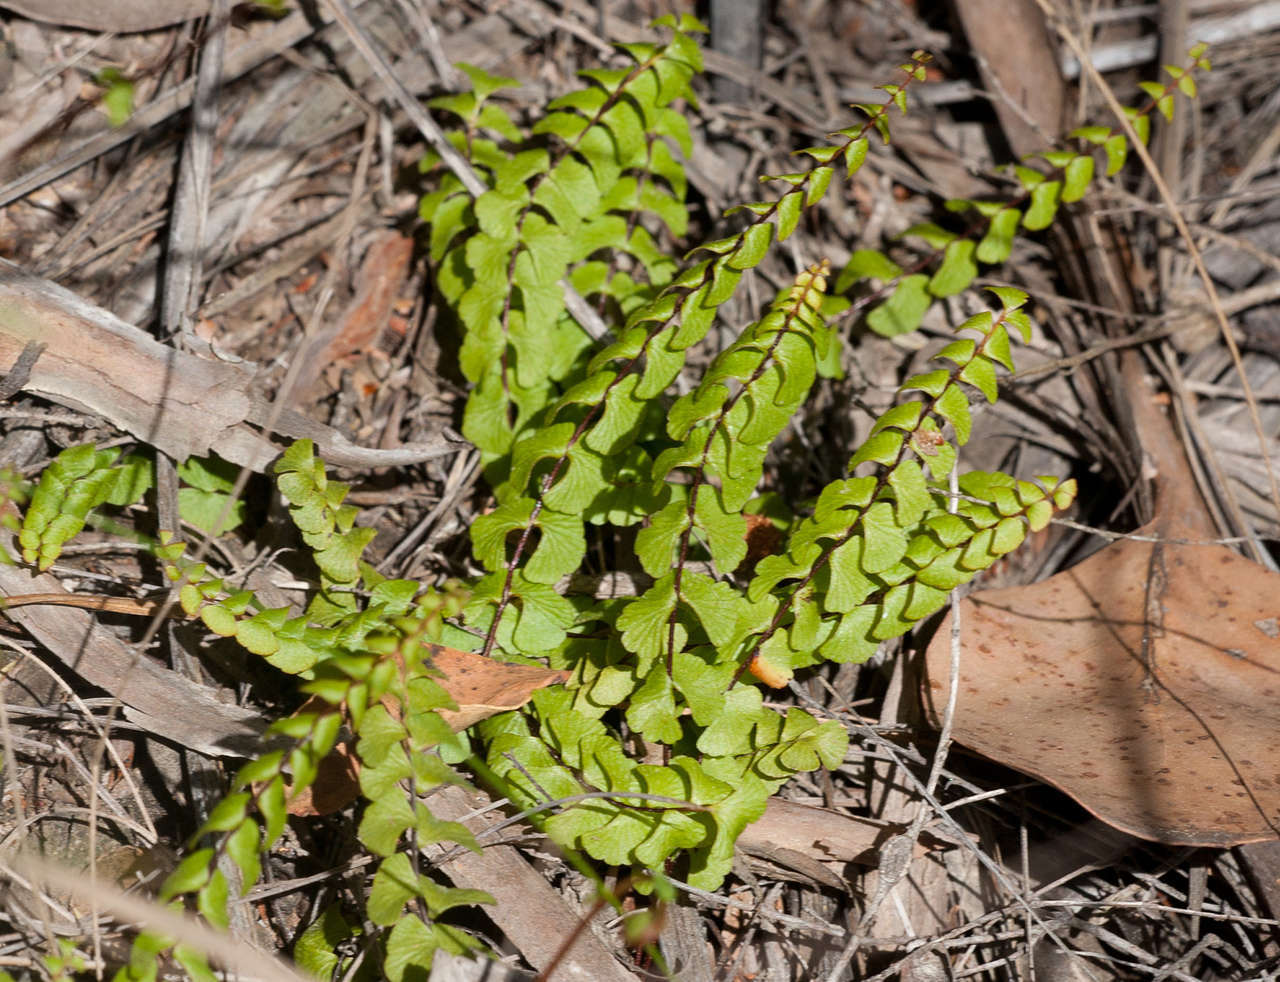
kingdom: Plantae
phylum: Tracheophyta
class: Polypodiopsida
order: Polypodiales
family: Lindsaeaceae
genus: Lindsaea
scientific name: Lindsaea linearis
